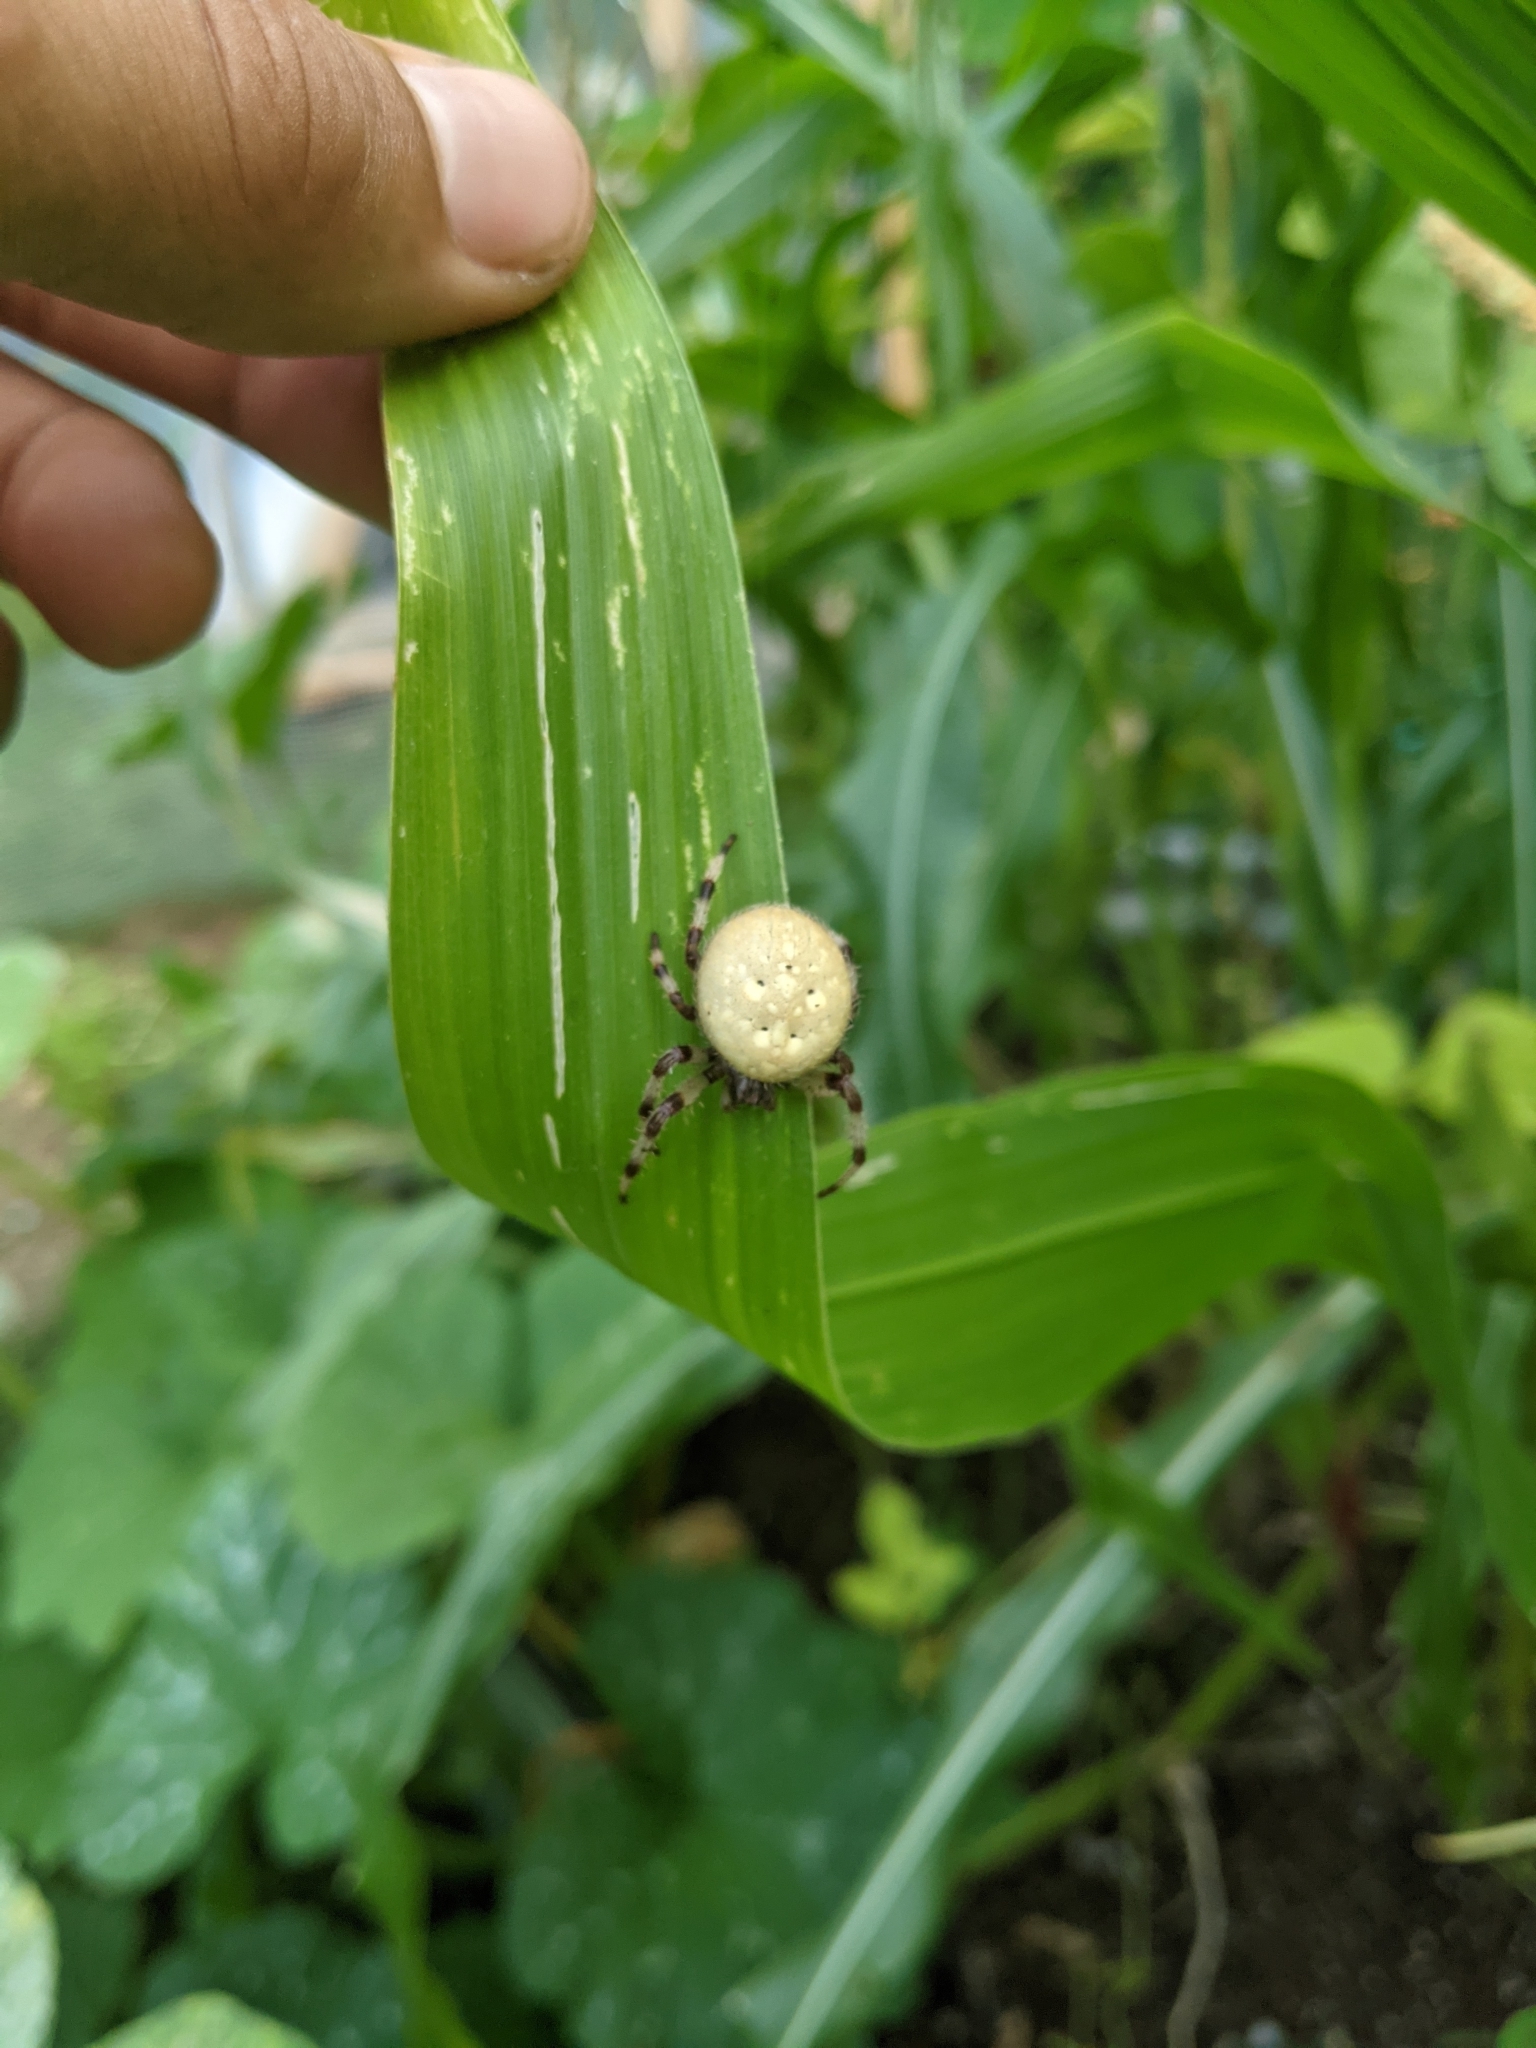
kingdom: Animalia
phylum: Arthropoda
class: Arachnida
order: Araneae
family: Araneidae
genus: Araneus
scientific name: Araneus trifolium
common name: Shamrock orbweaver
